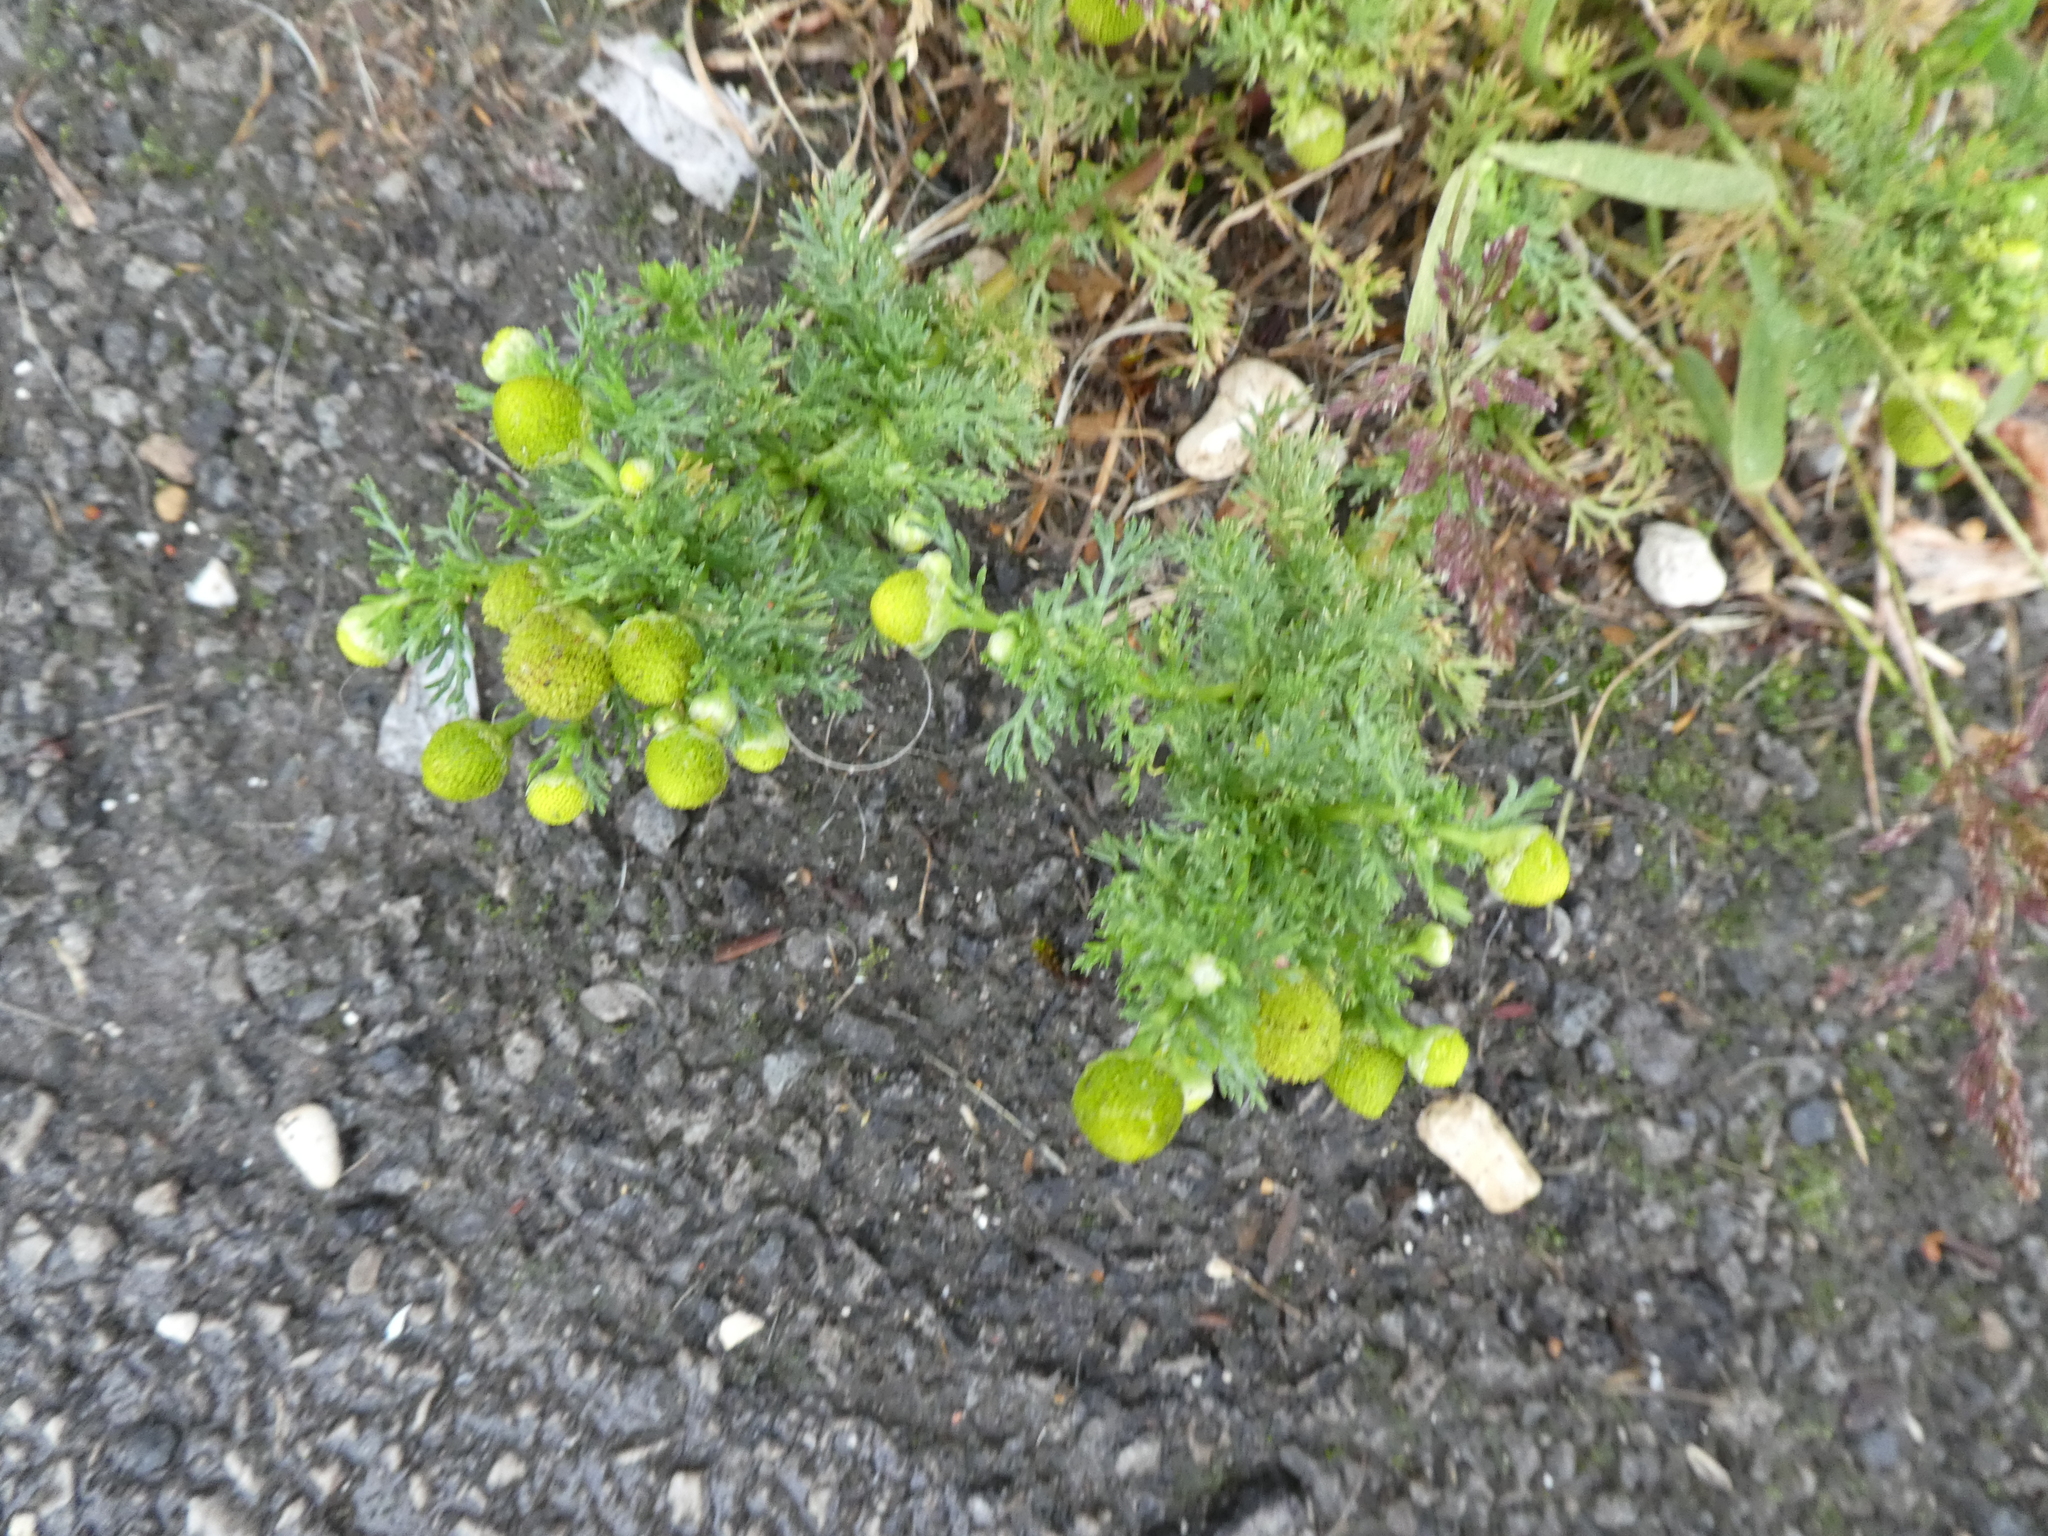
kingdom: Plantae
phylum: Tracheophyta
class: Magnoliopsida
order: Asterales
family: Asteraceae
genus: Matricaria
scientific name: Matricaria discoidea
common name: Disc mayweed
